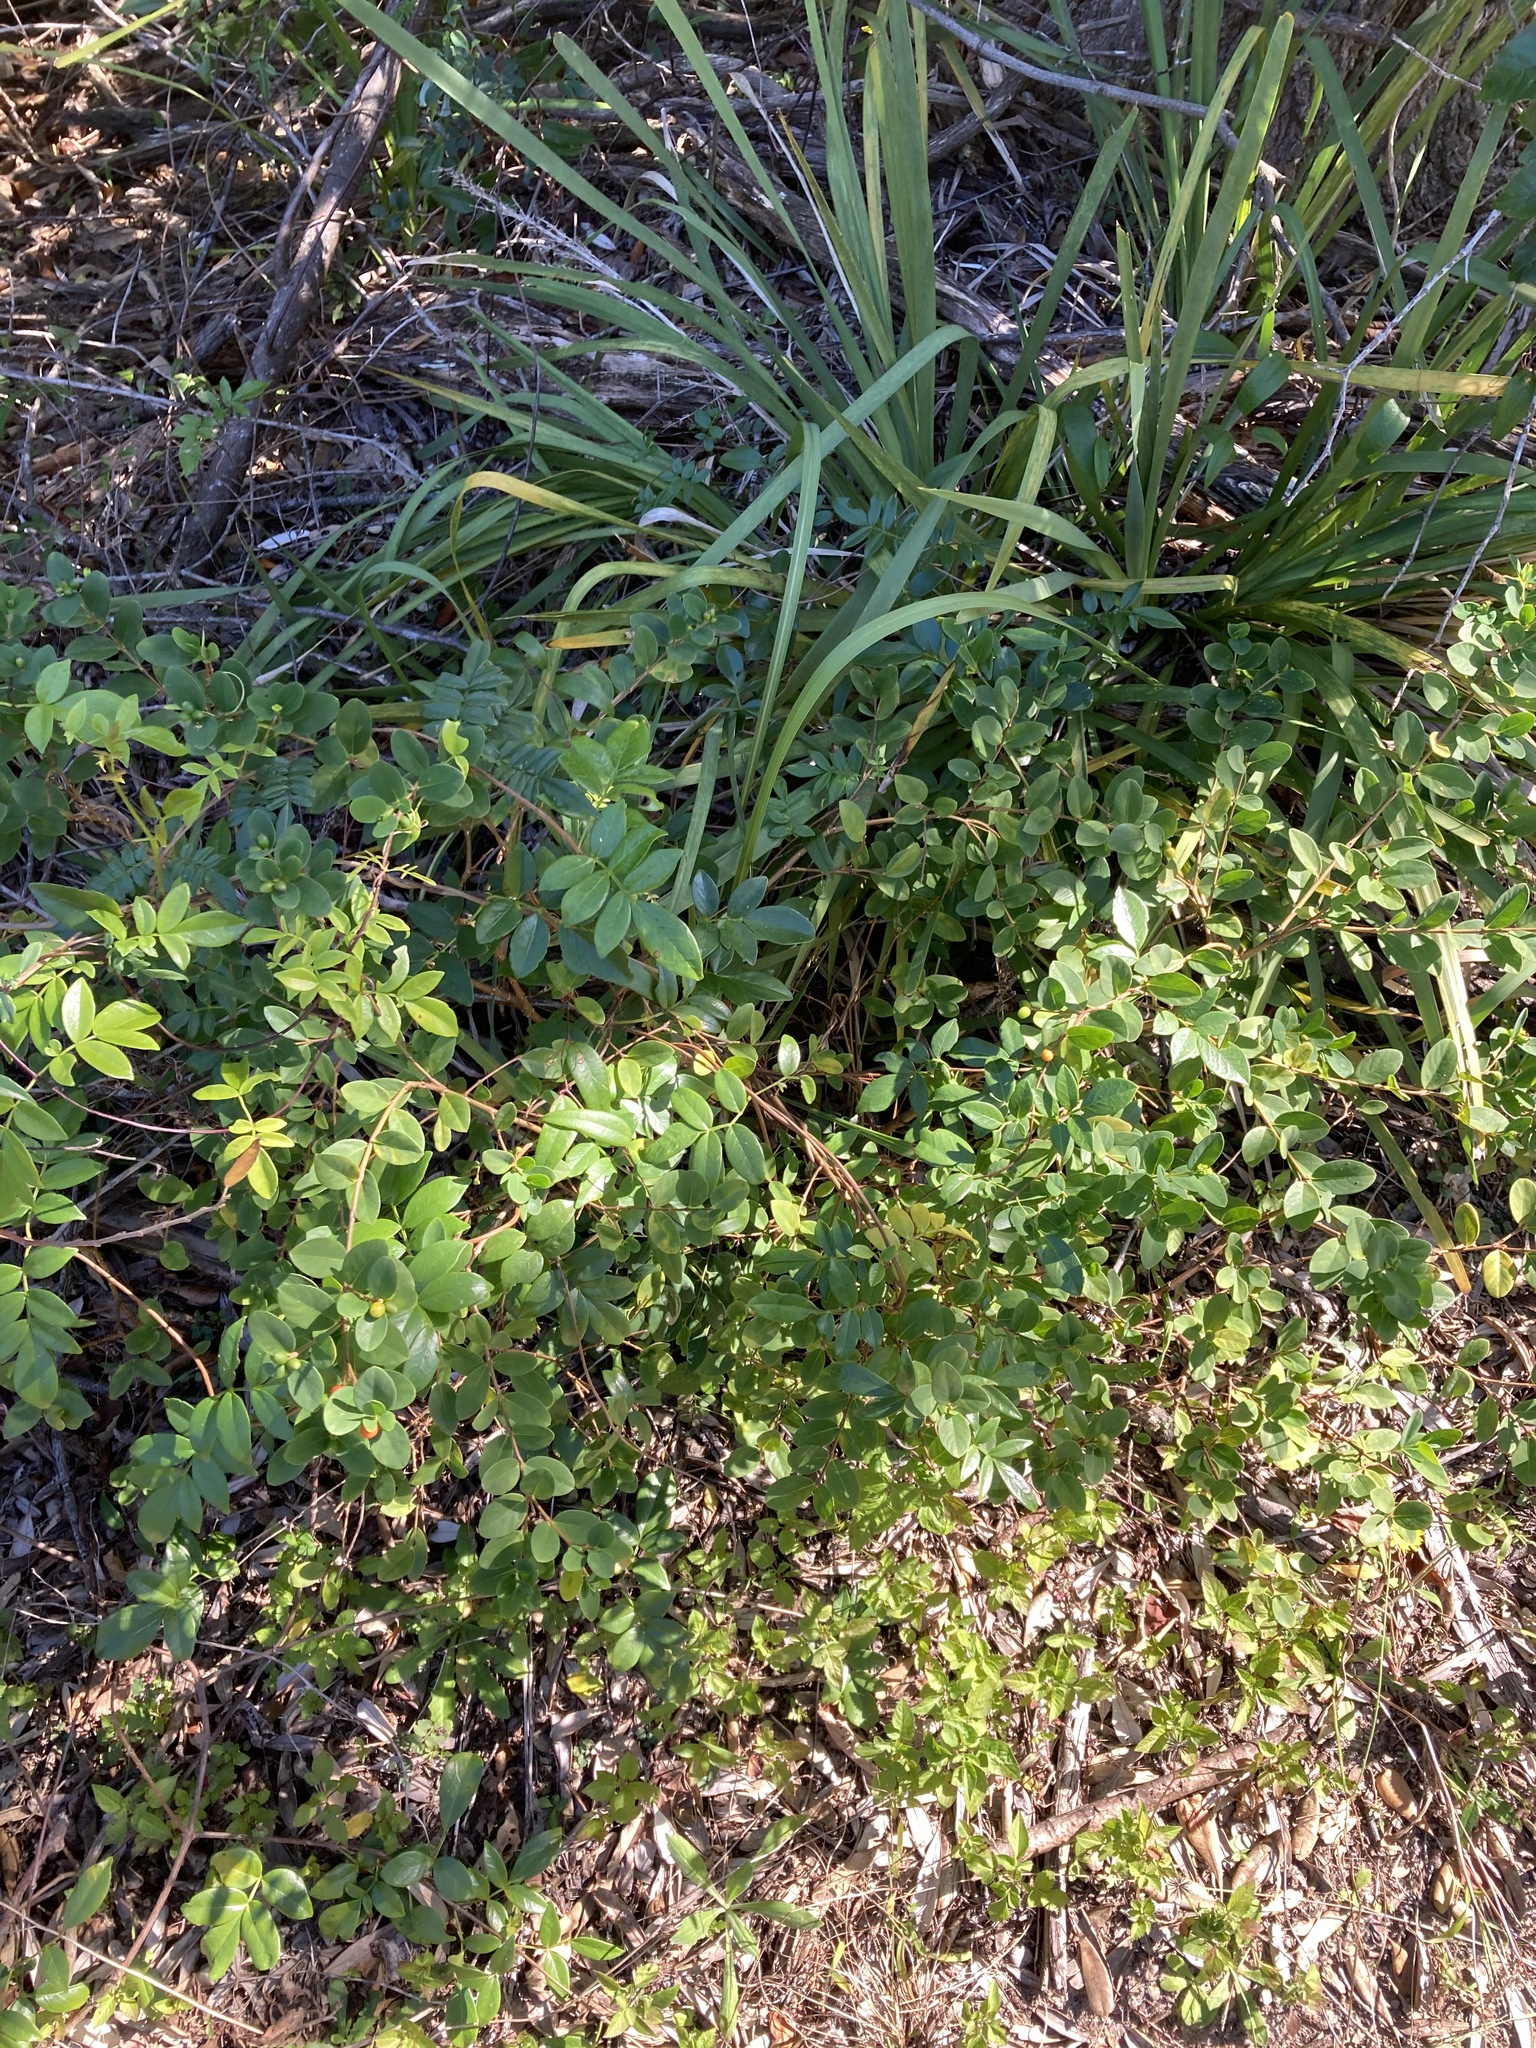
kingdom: Plantae
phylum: Tracheophyta
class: Magnoliopsida
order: Malvales
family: Thymelaeaceae
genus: Wikstroemia
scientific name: Wikstroemia indica
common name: Tiebush
